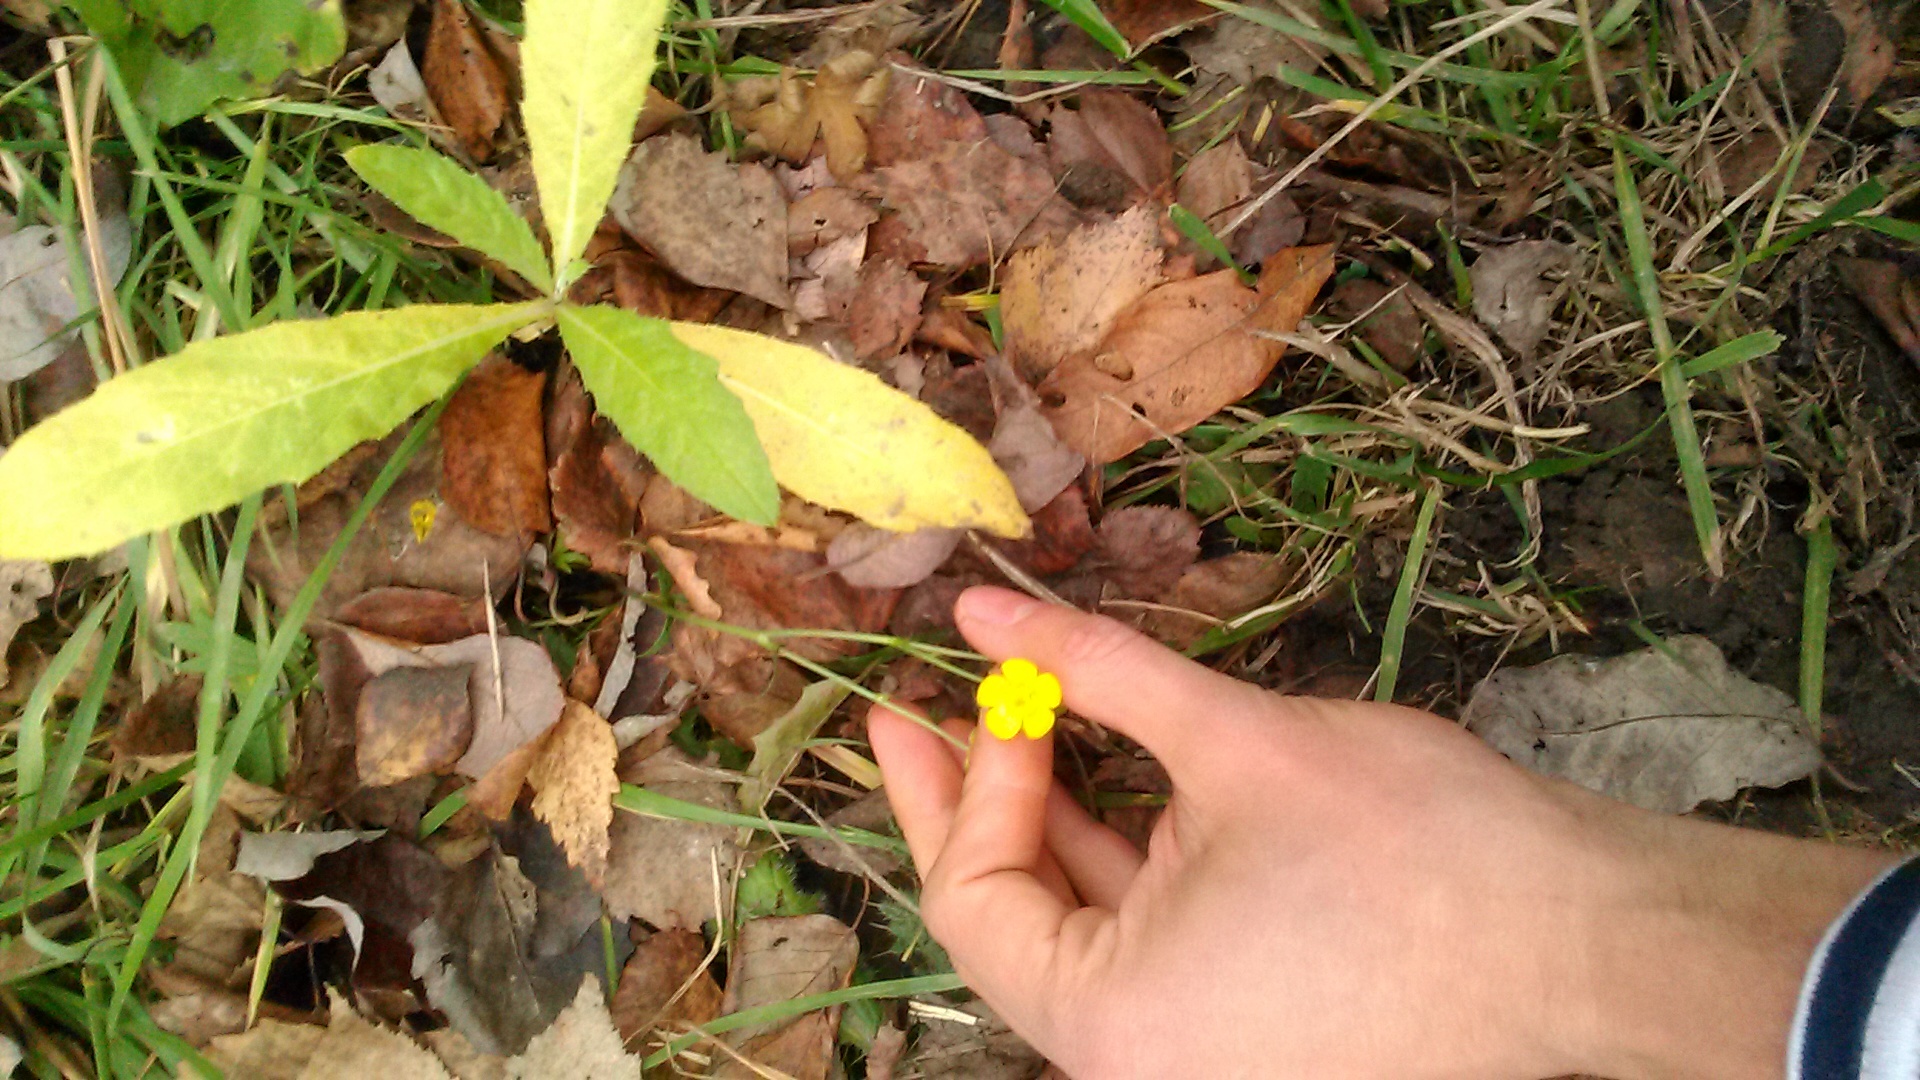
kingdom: Plantae
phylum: Tracheophyta
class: Magnoliopsida
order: Ranunculales
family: Ranunculaceae
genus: Ranunculus
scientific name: Ranunculus acris
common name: Meadow buttercup
